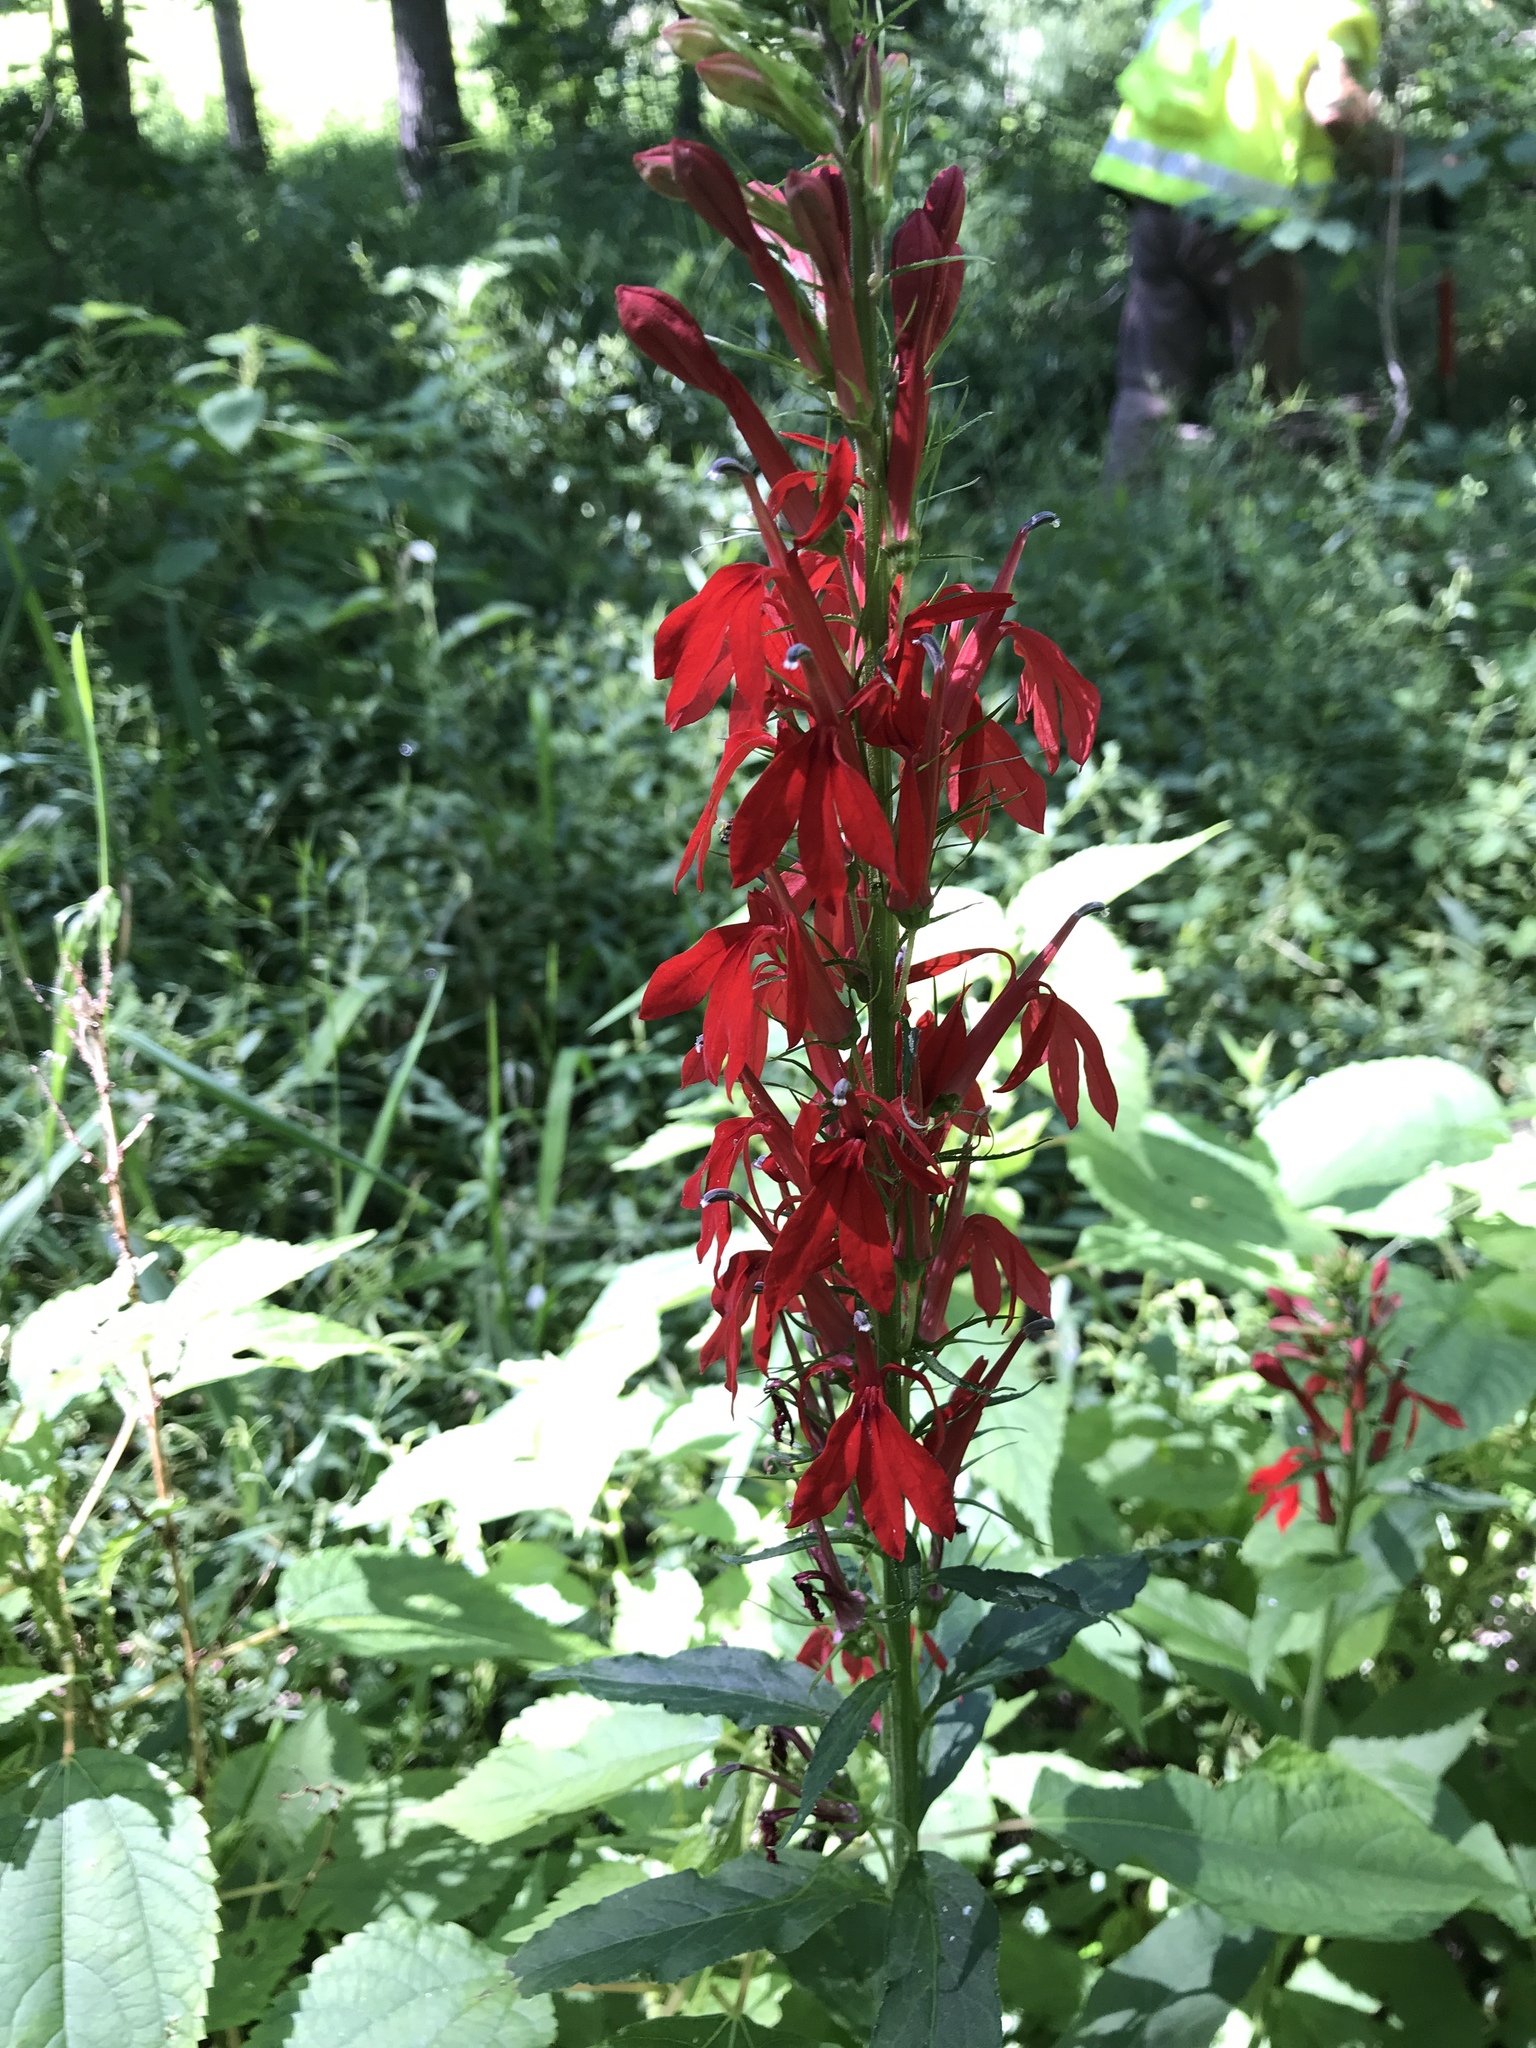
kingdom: Plantae
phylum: Tracheophyta
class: Magnoliopsida
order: Asterales
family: Campanulaceae
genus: Lobelia
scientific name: Lobelia cardinalis
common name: Cardinal flower
